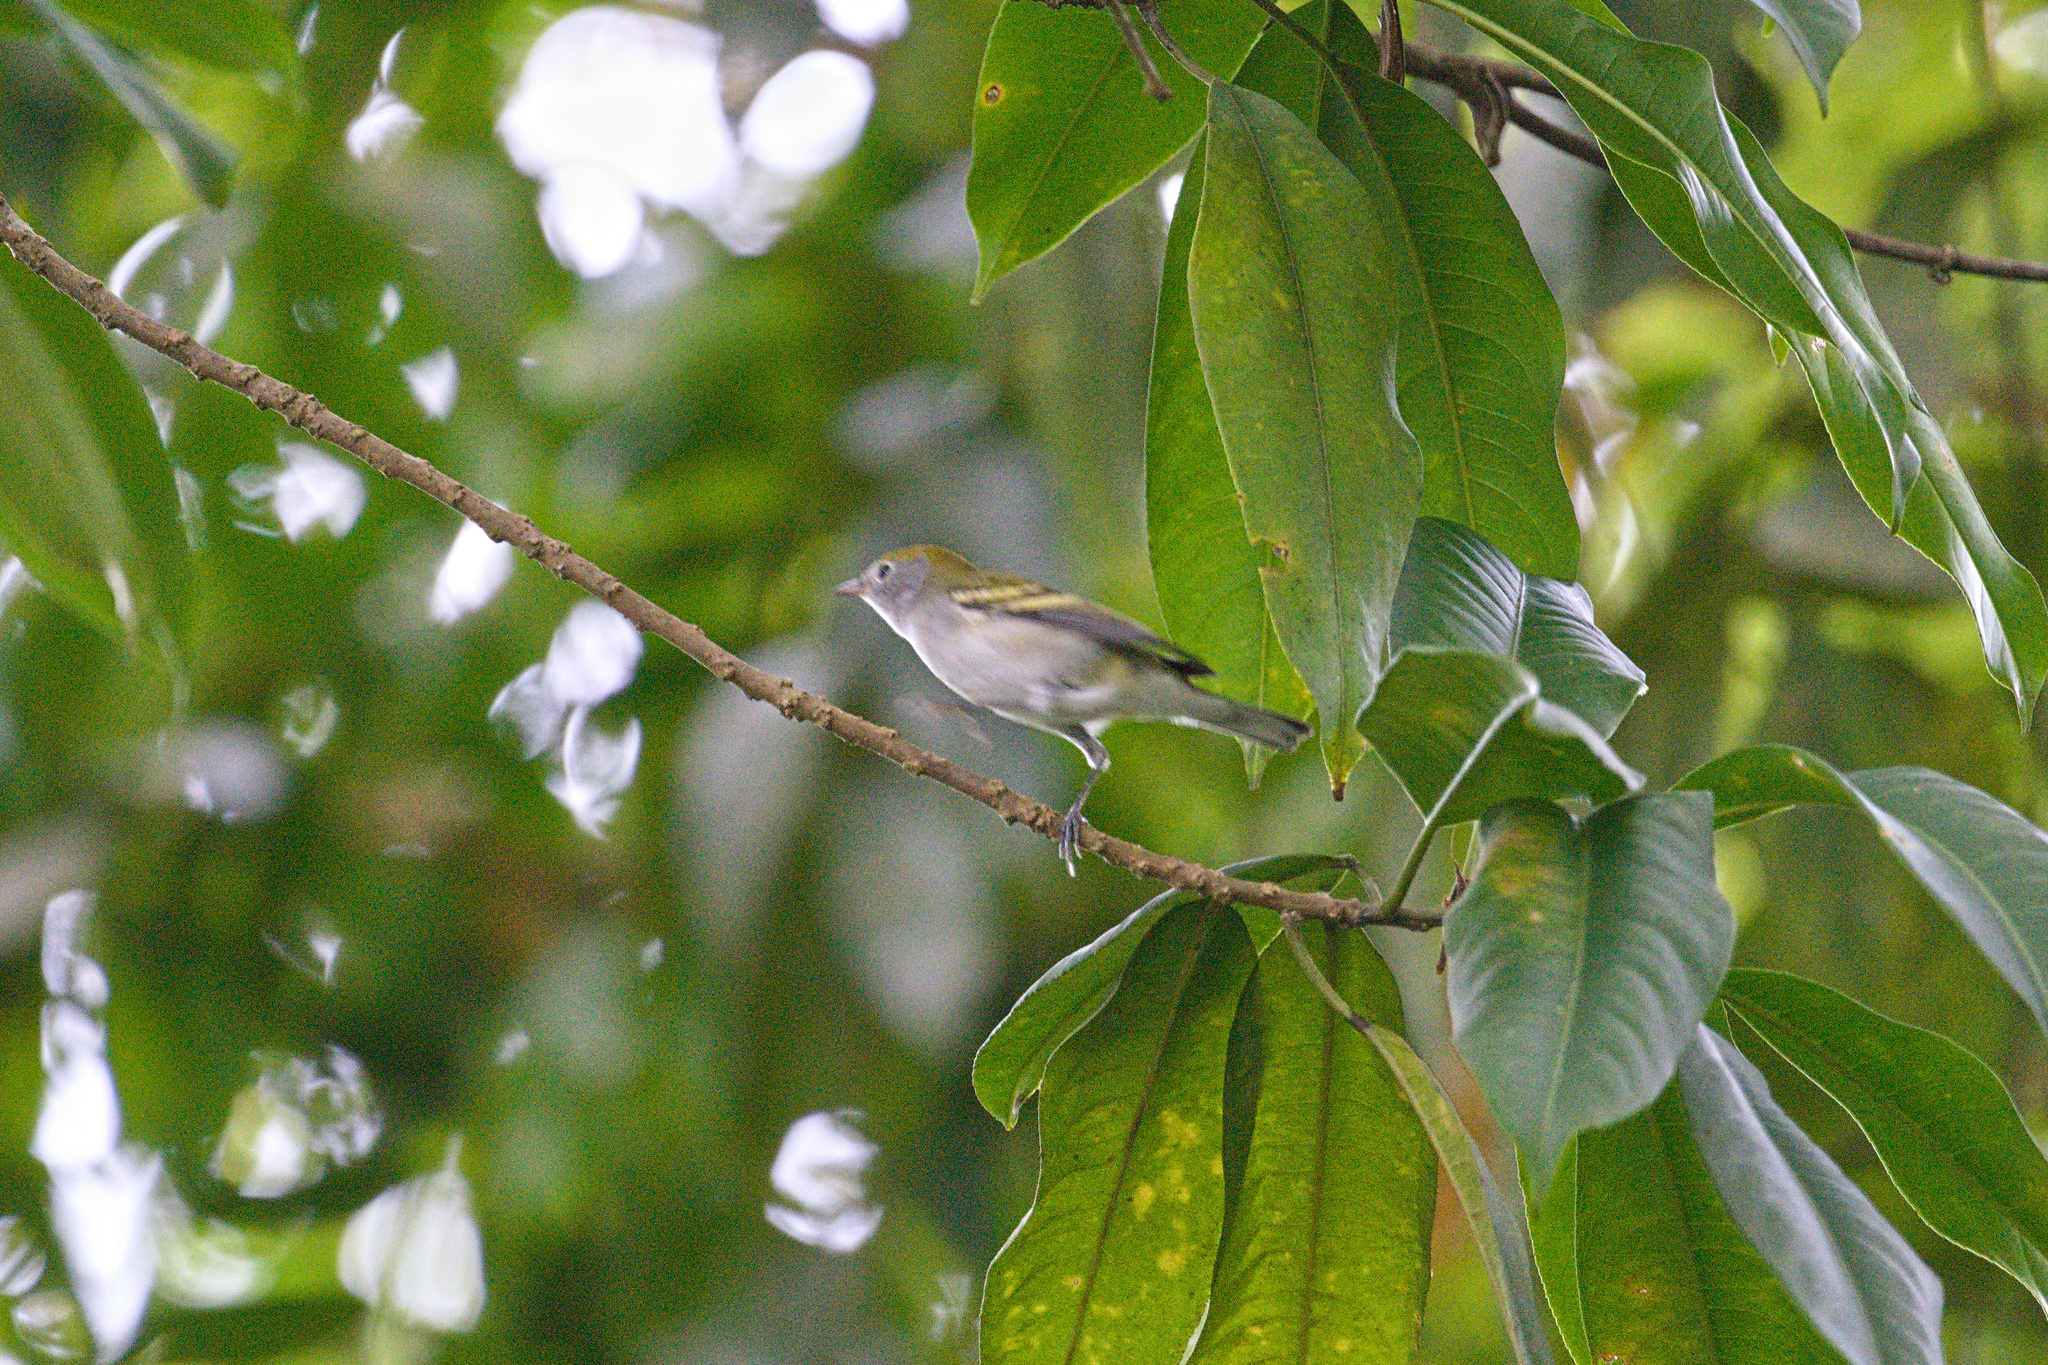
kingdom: Animalia
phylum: Chordata
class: Aves
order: Passeriformes
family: Parulidae
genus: Setophaga
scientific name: Setophaga pensylvanica
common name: Chestnut-sided warbler
